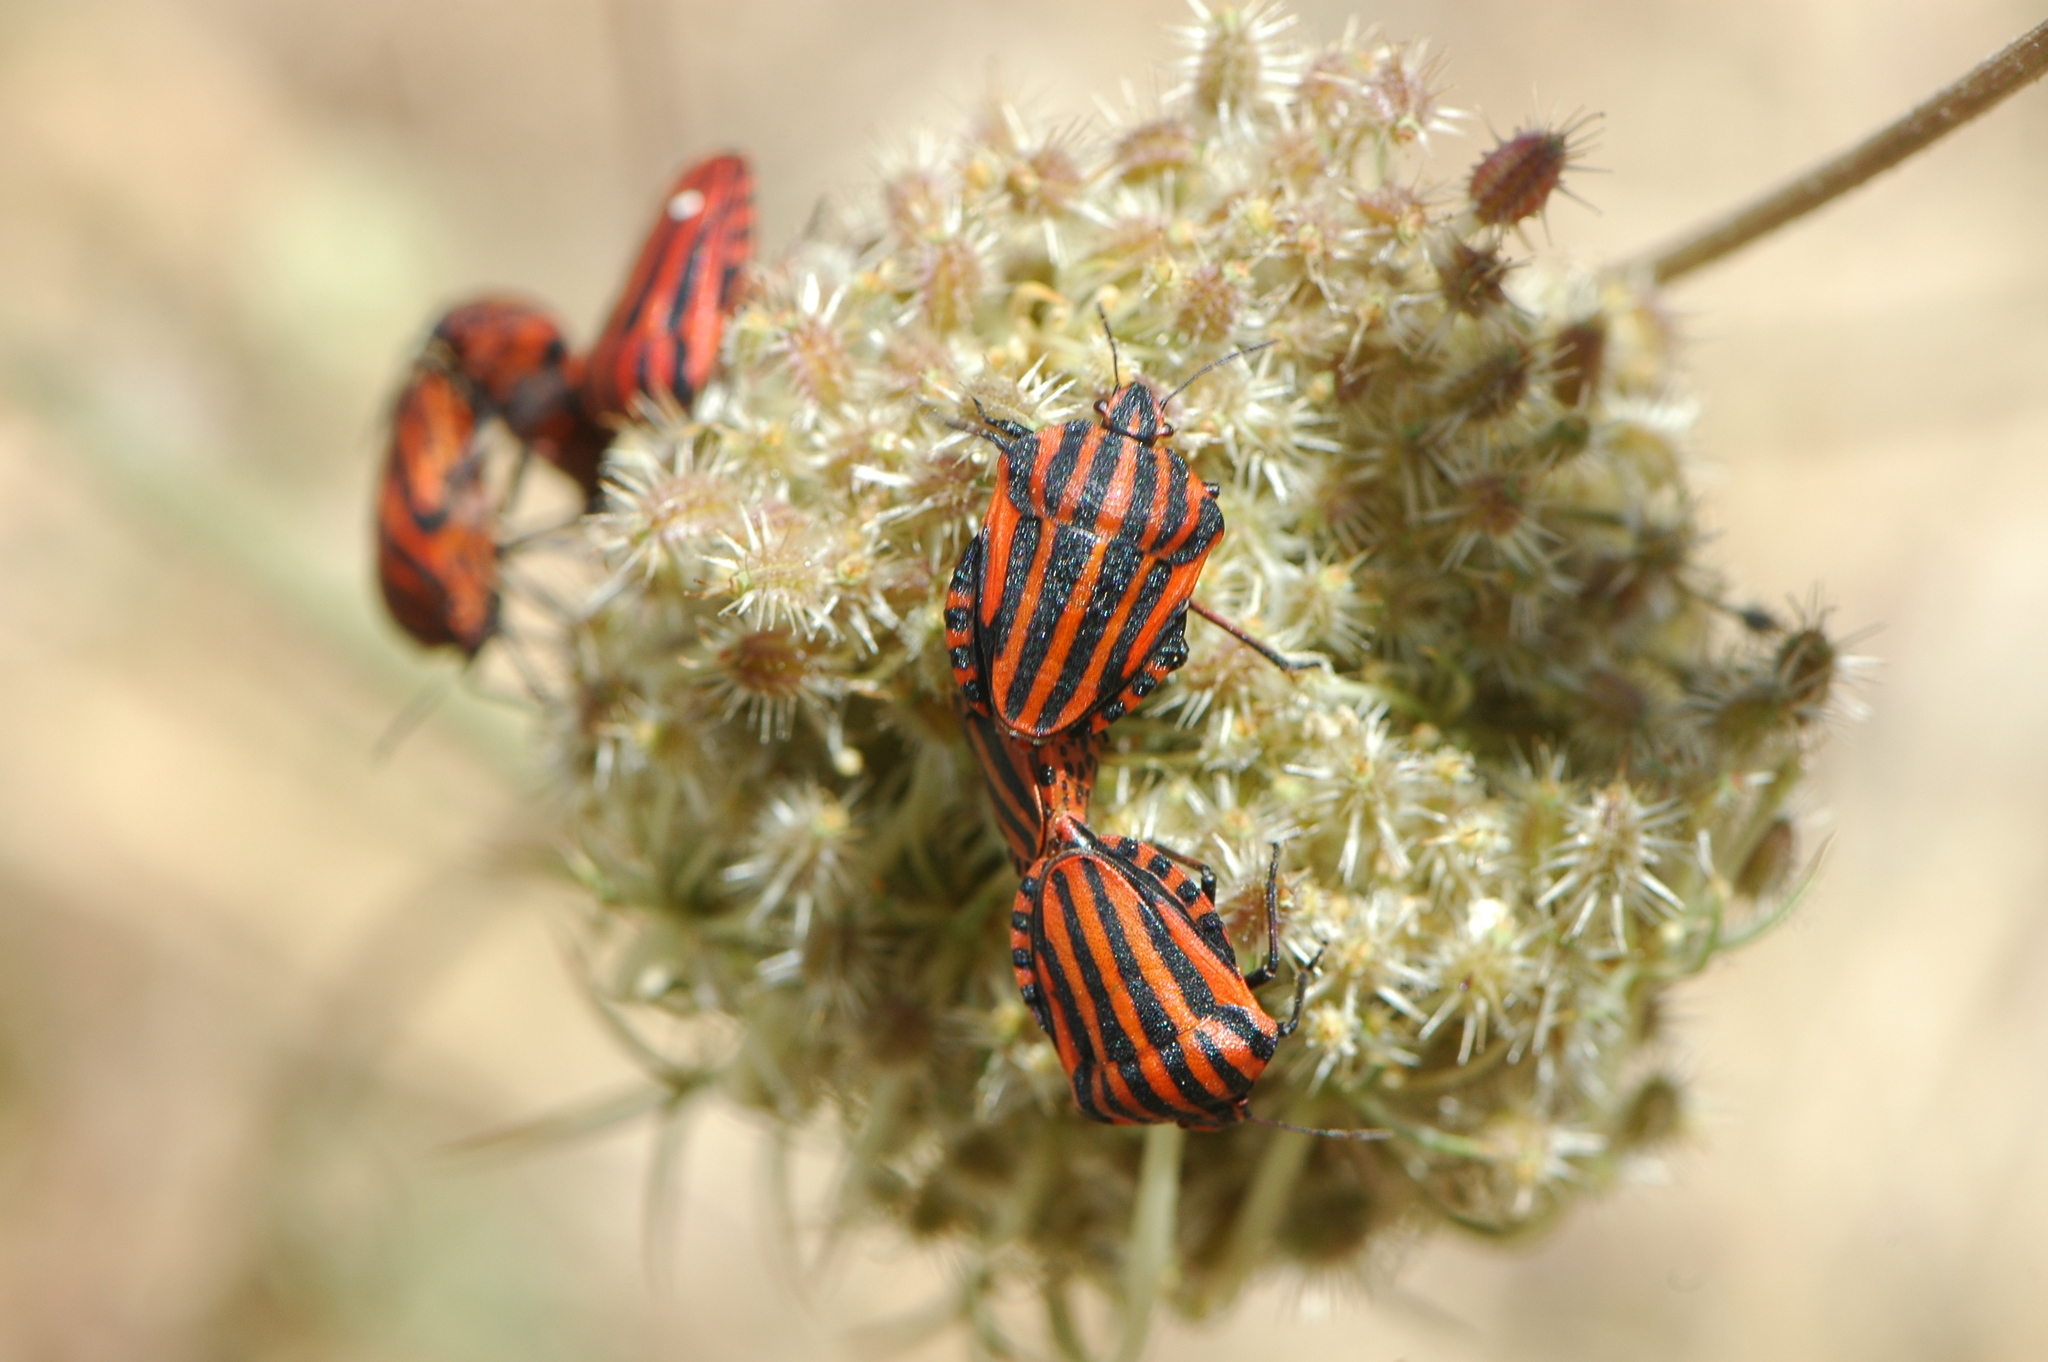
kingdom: Animalia
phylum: Arthropoda
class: Insecta
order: Hemiptera
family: Pentatomidae
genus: Graphosoma
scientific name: Graphosoma italicum
